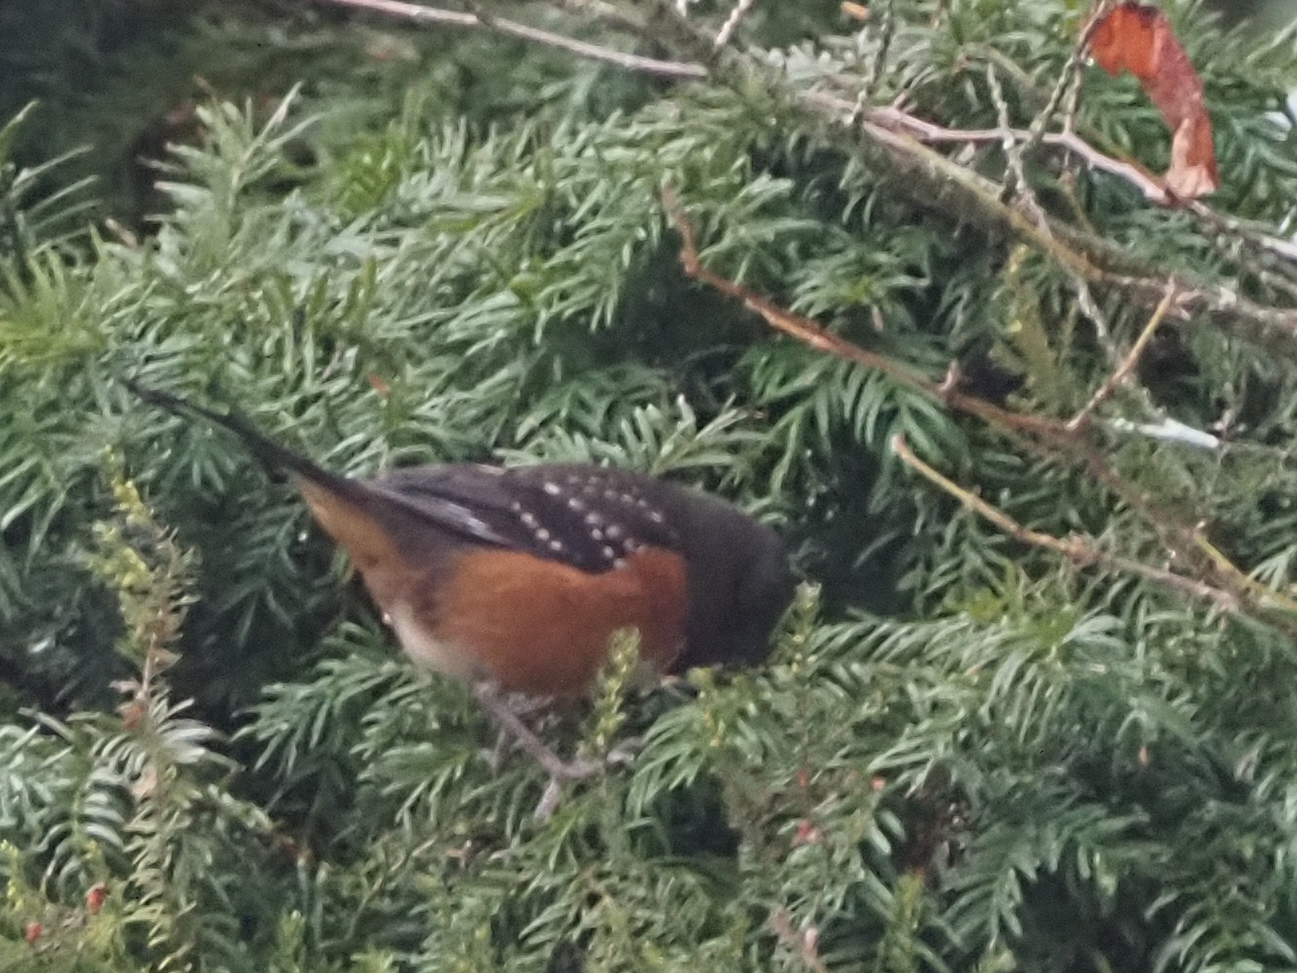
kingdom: Animalia
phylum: Chordata
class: Aves
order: Passeriformes
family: Passerellidae
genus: Pipilo
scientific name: Pipilo maculatus
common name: Spotted towhee
